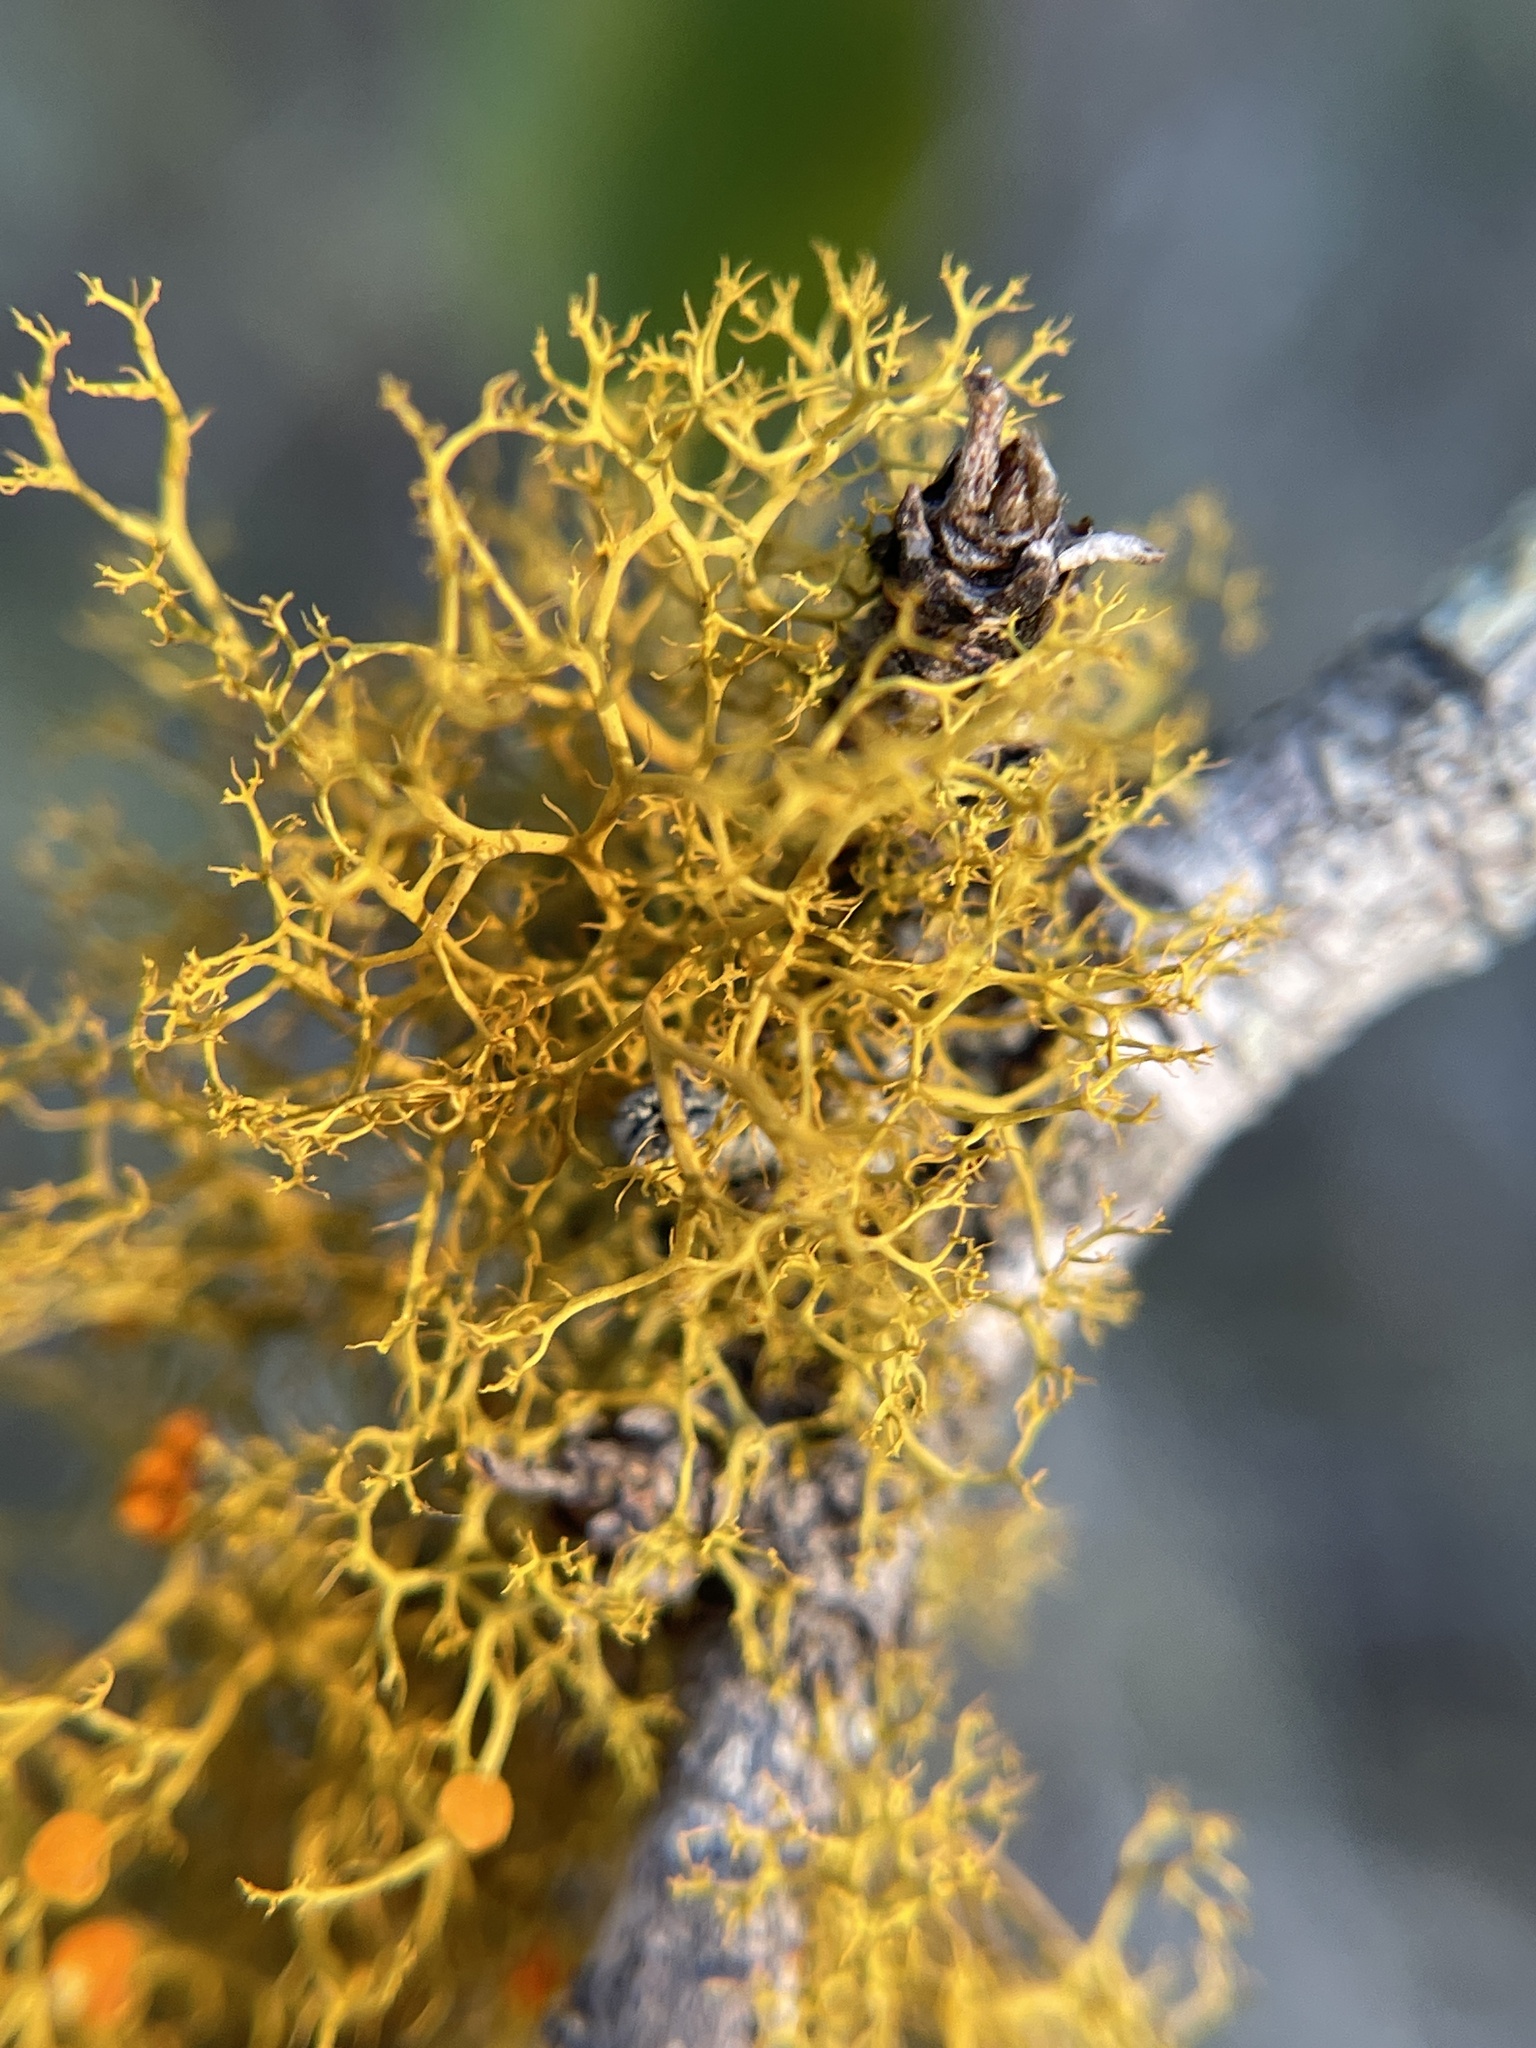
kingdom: Fungi
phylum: Ascomycota
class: Lecanoromycetes
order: Teloschistales
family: Teloschistaceae
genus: Teloschistes
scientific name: Teloschistes exilis
